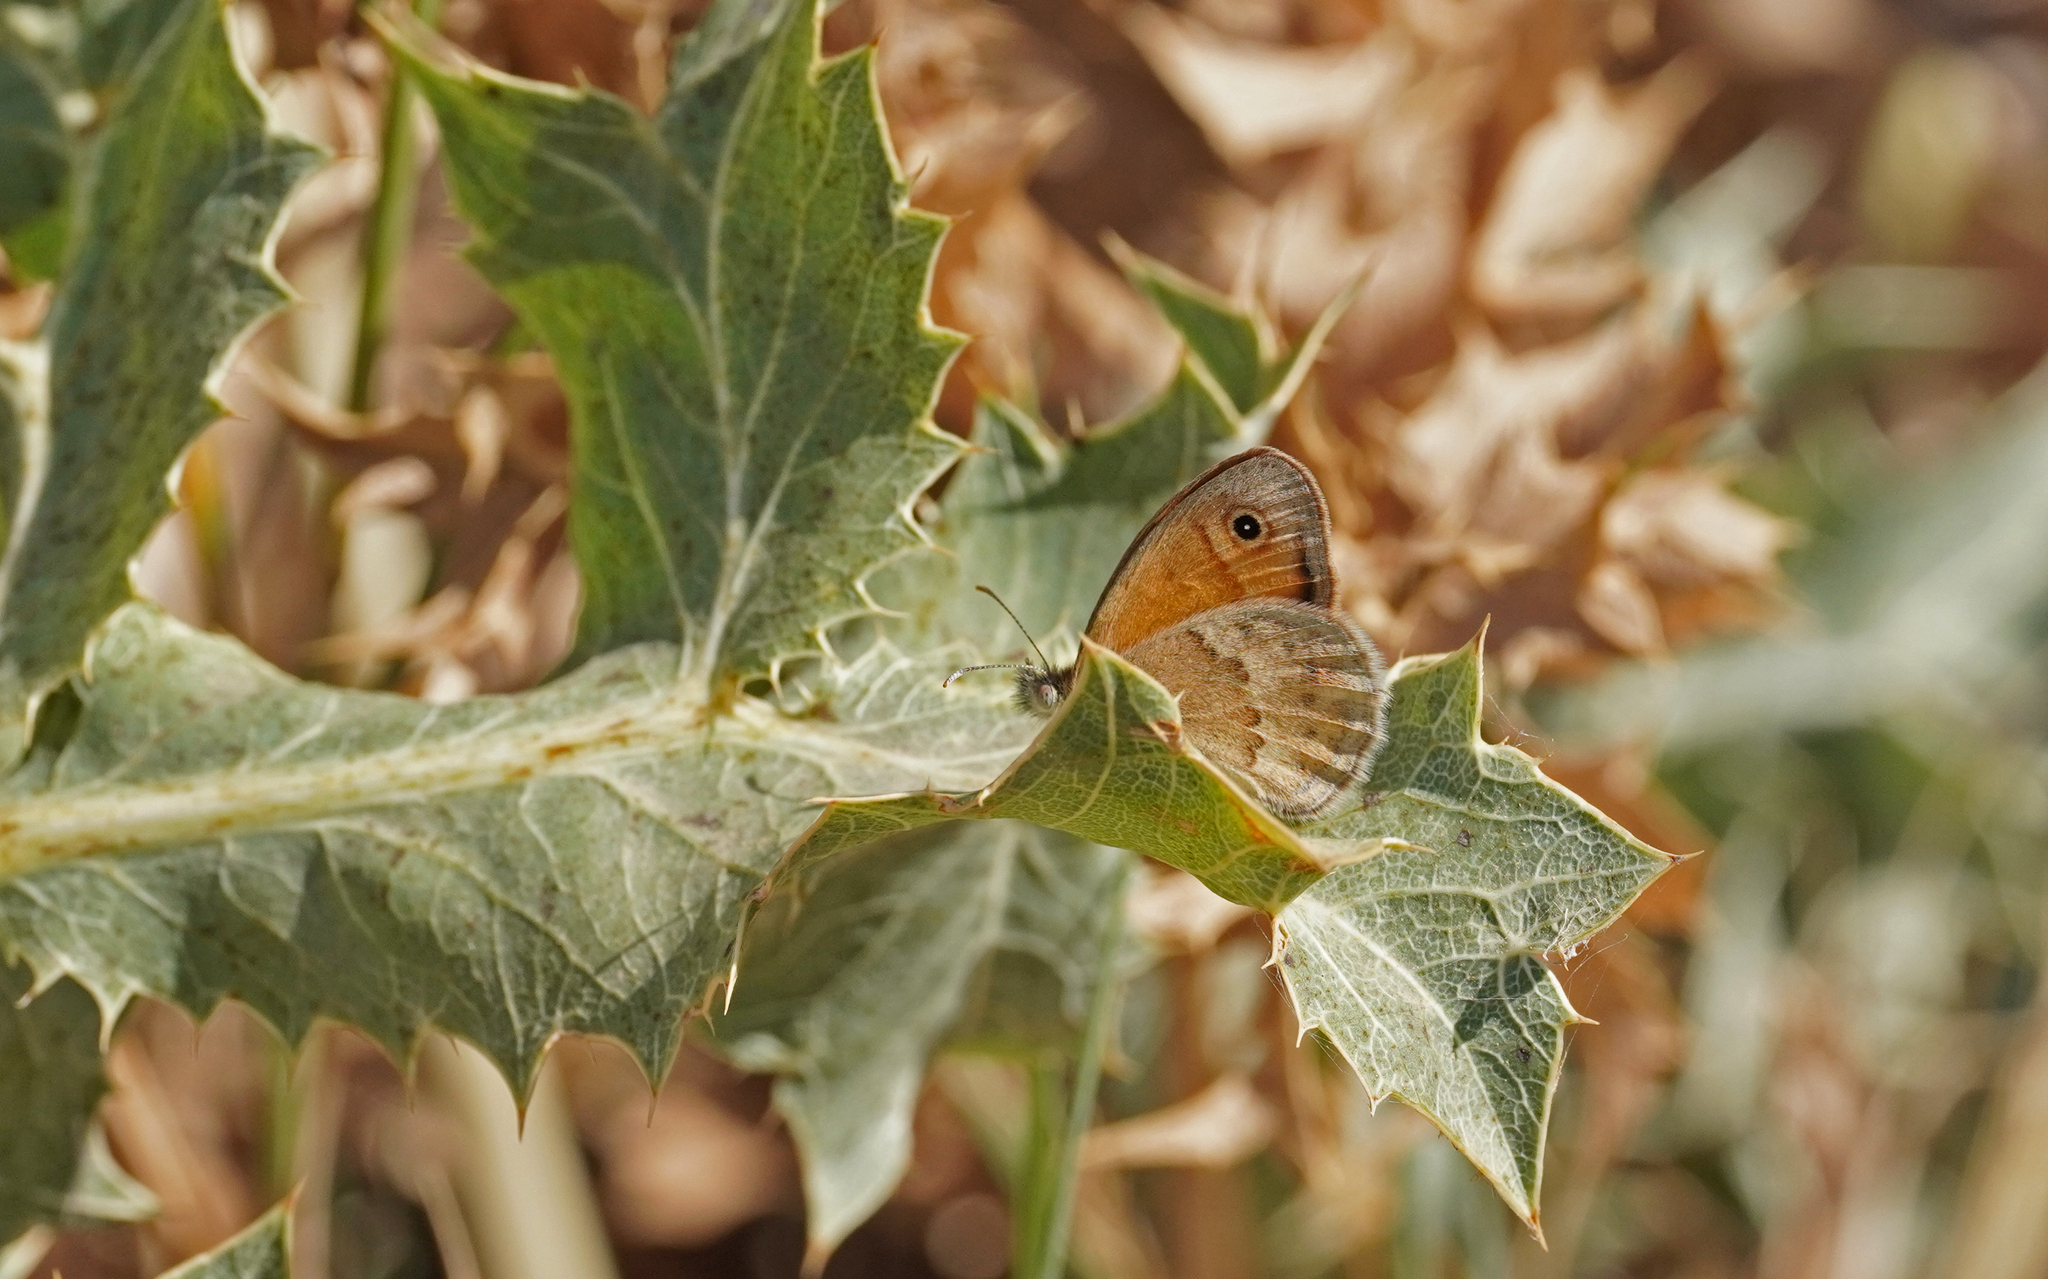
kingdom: Animalia
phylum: Arthropoda
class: Insecta
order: Lepidoptera
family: Nymphalidae
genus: Coenonympha
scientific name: Coenonympha pamphilus
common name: Small heath
